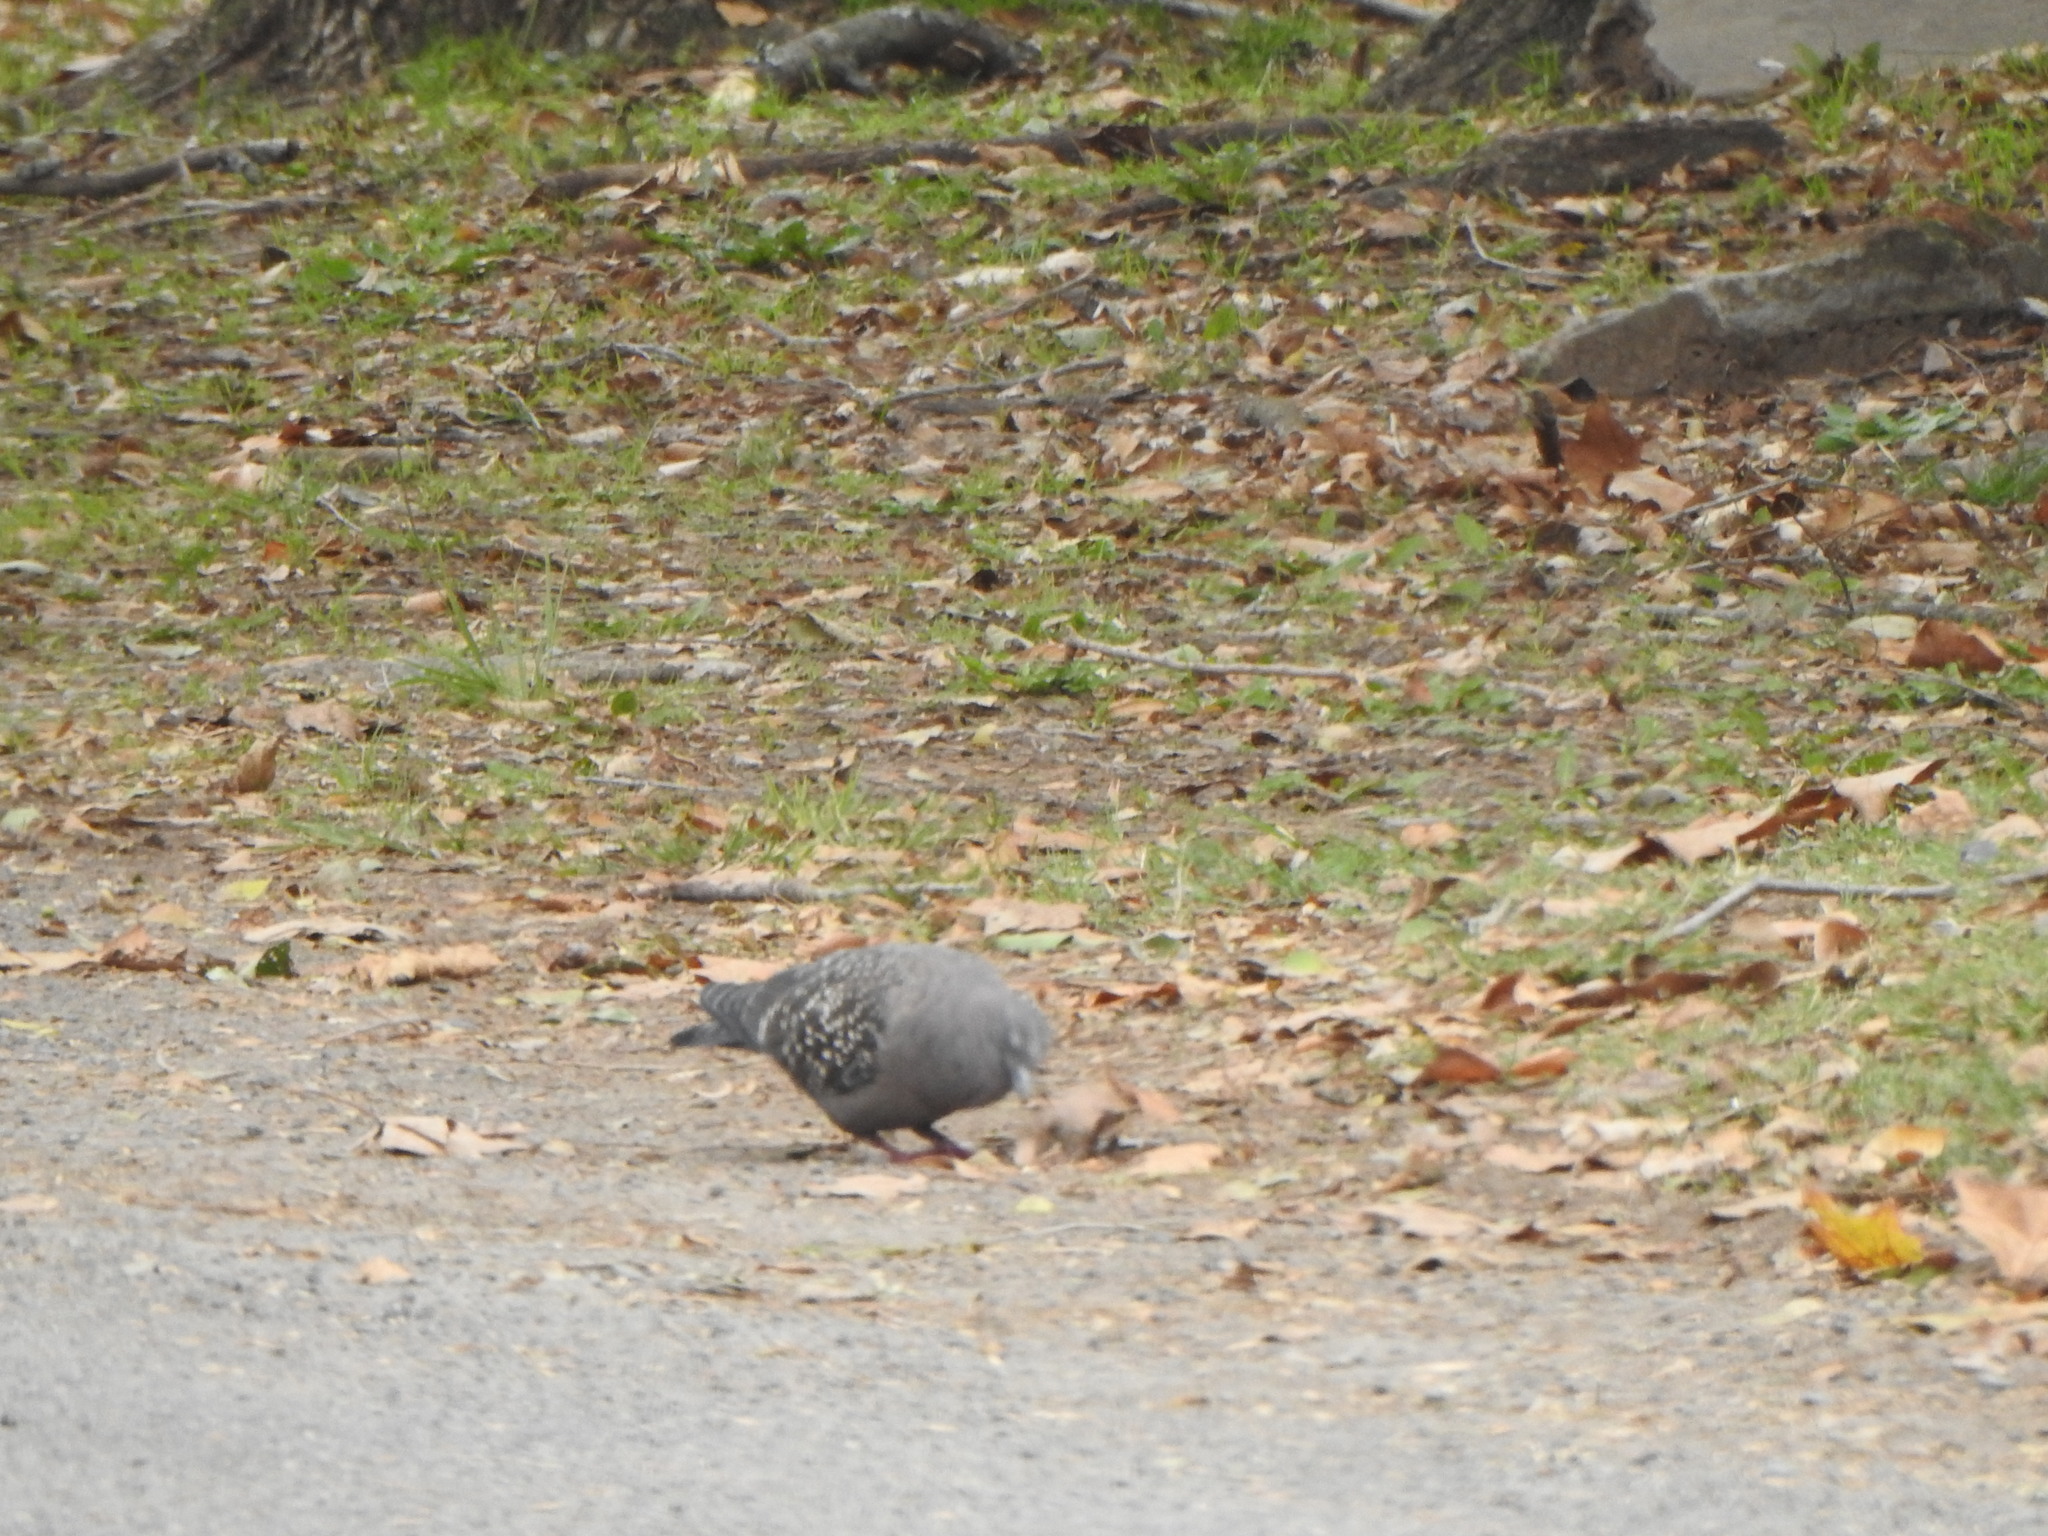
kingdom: Animalia
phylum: Chordata
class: Aves
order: Columbiformes
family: Columbidae
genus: Patagioenas
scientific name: Patagioenas maculosa
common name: Spot-winged pigeon
